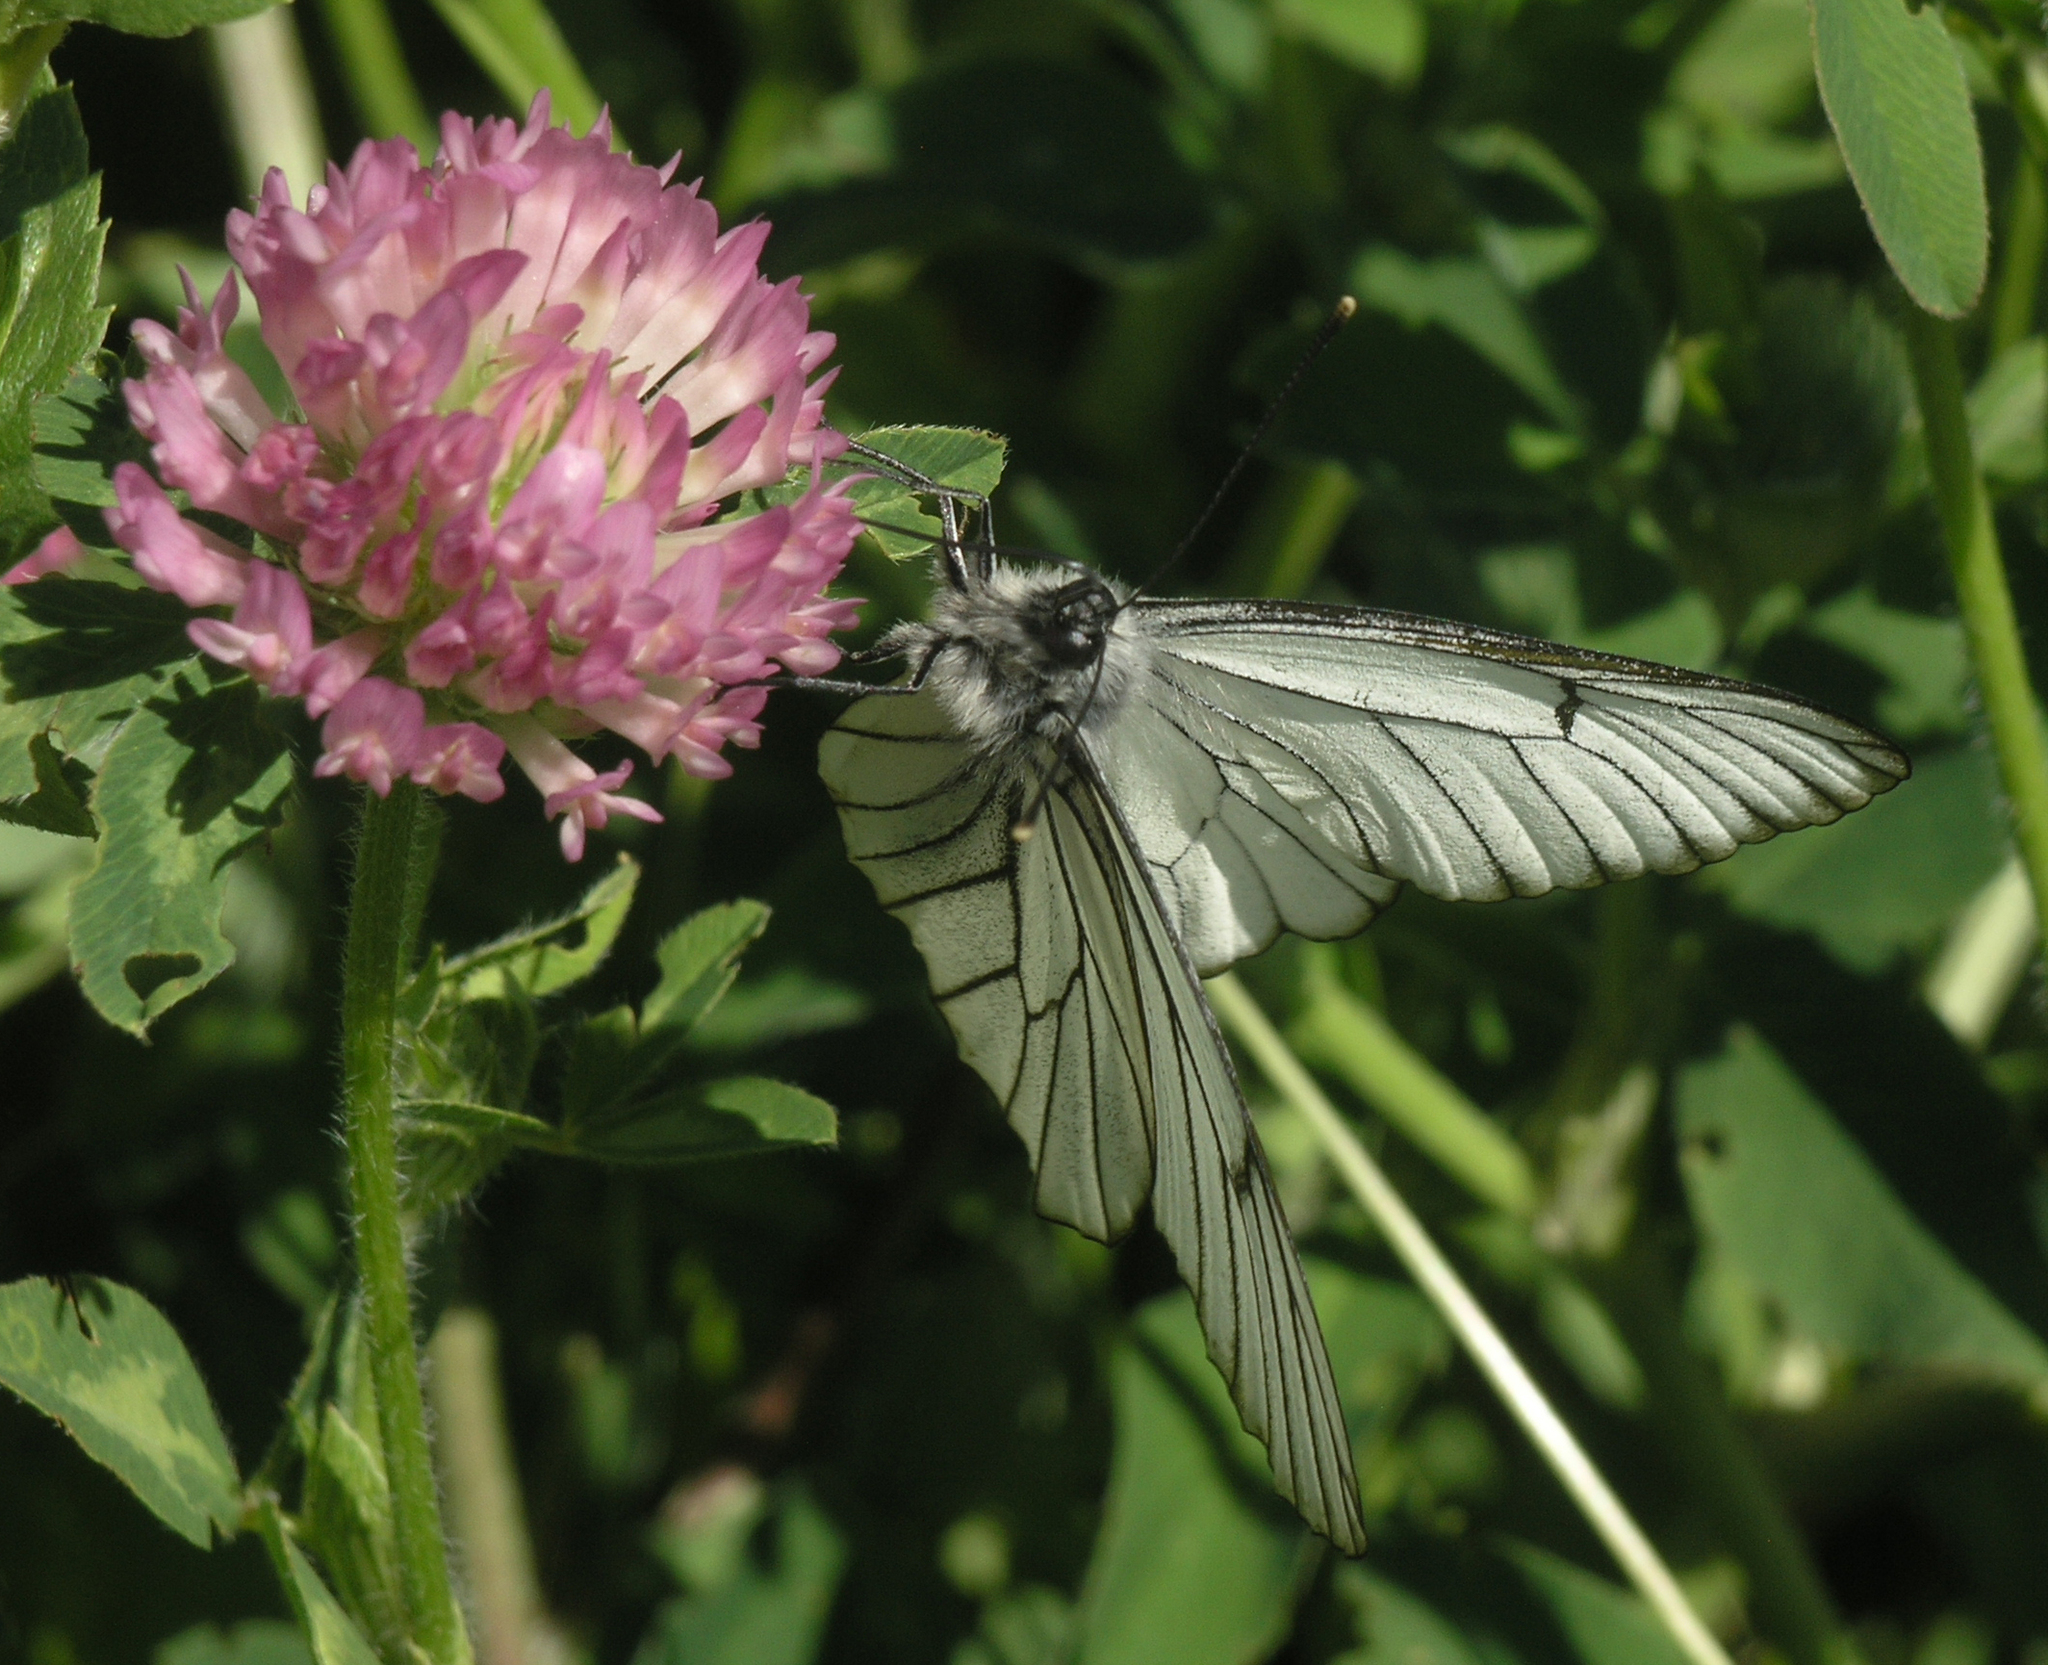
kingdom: Animalia
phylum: Arthropoda
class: Insecta
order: Lepidoptera
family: Pieridae
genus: Aporia
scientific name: Aporia crataegi
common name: Black-veined white
